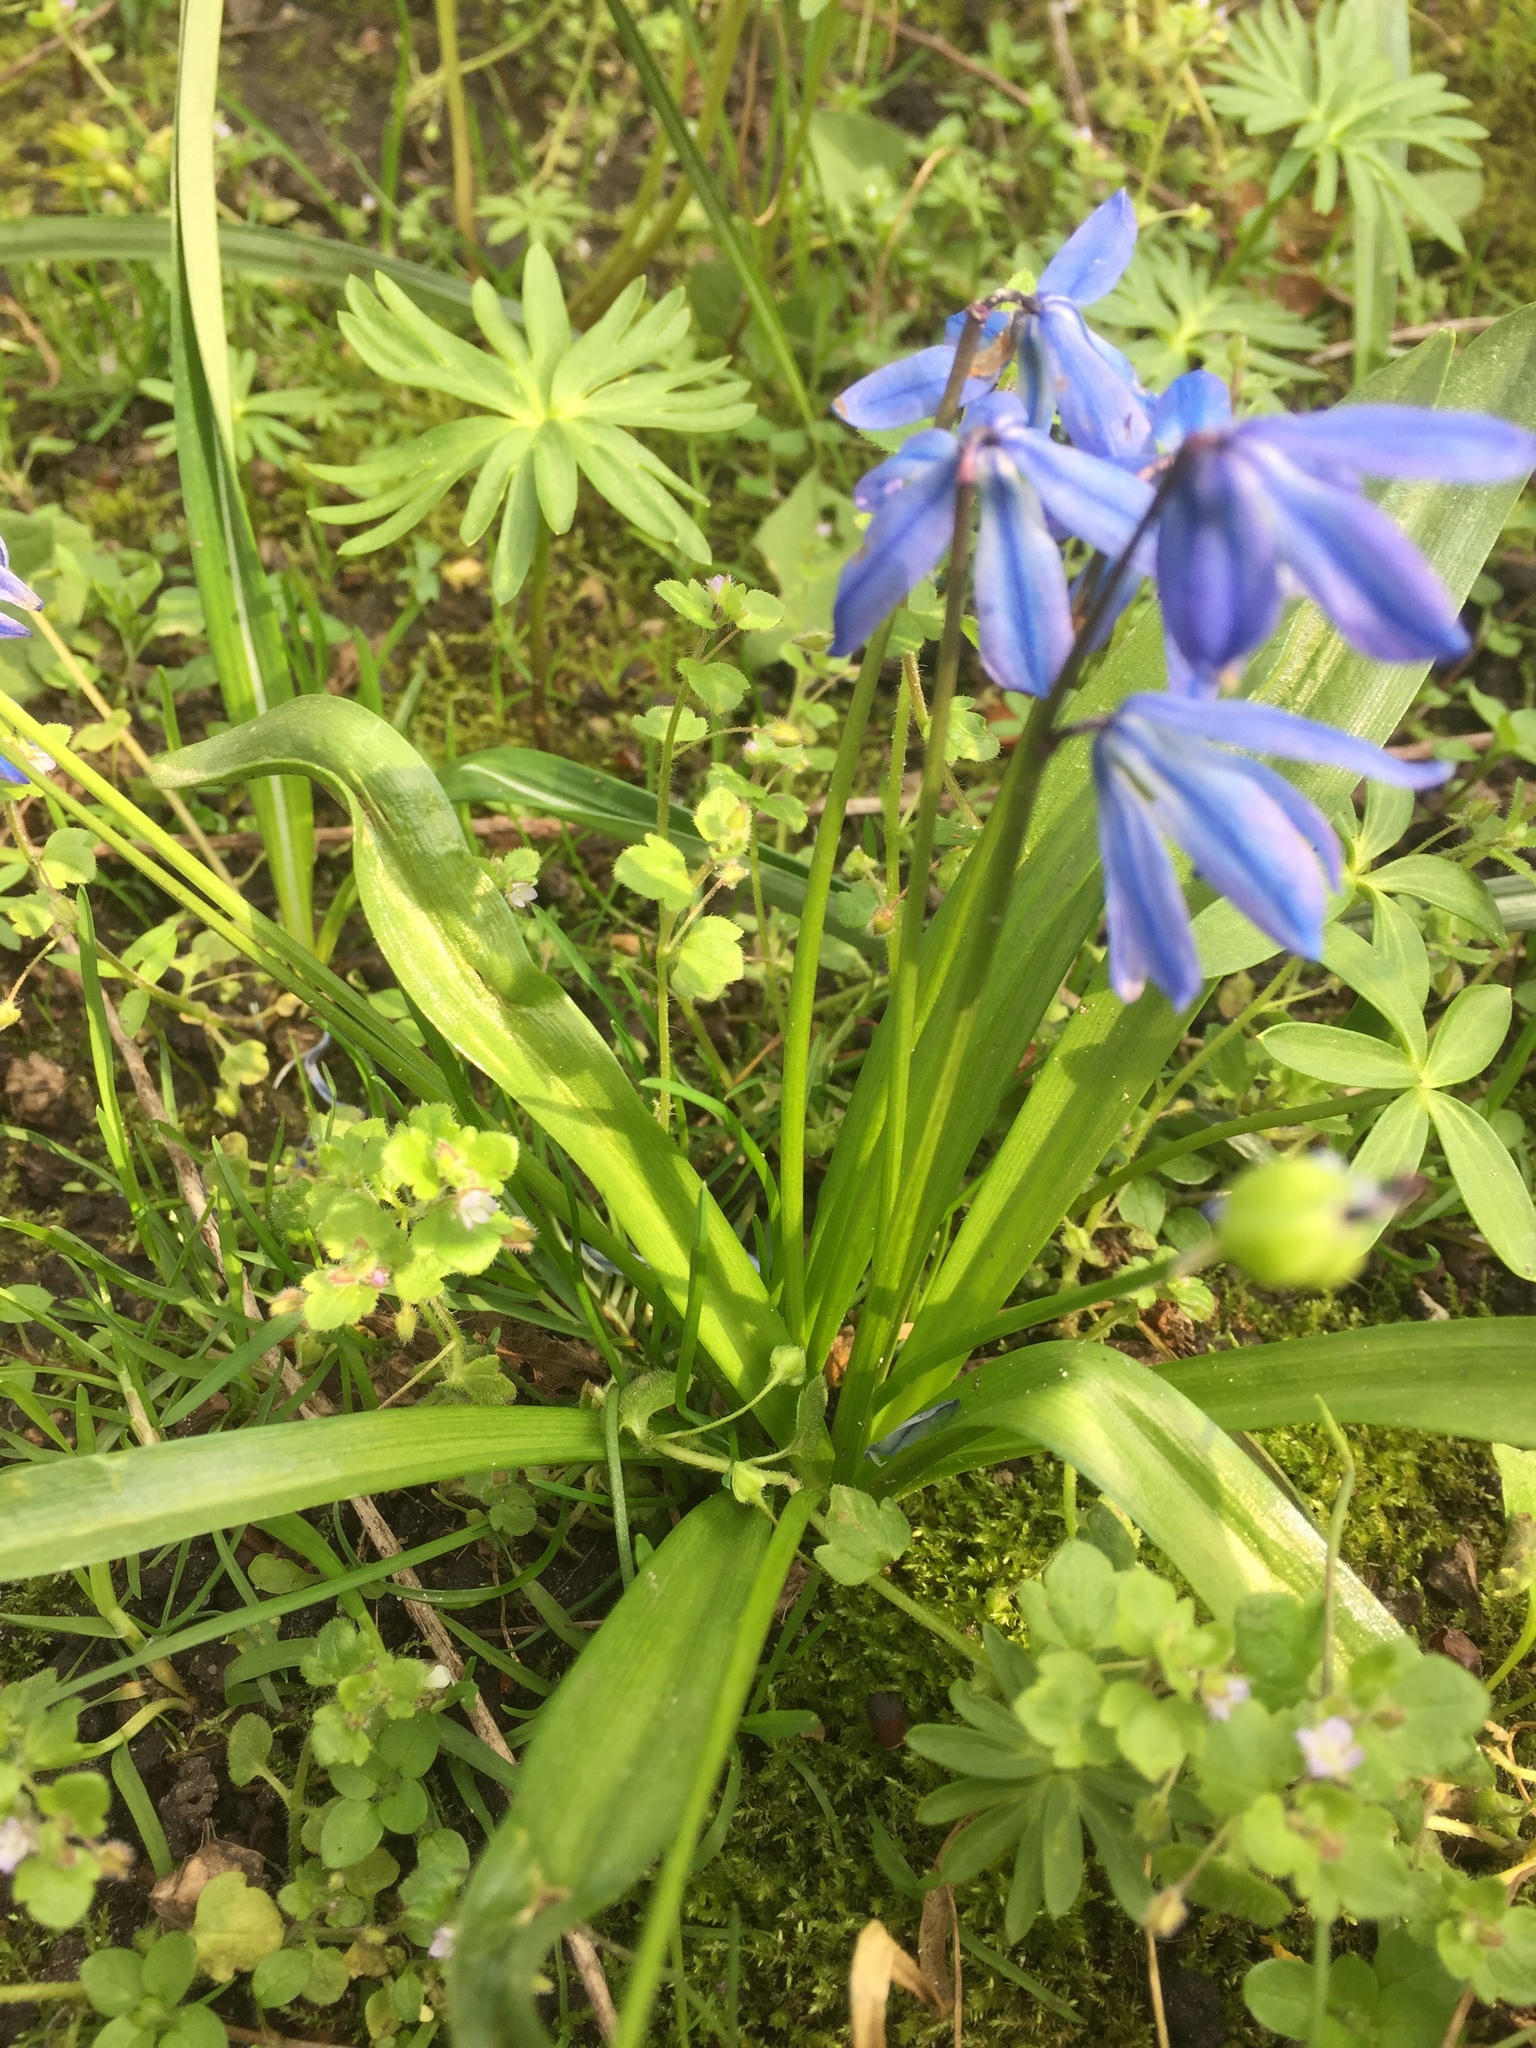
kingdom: Plantae
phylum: Tracheophyta
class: Liliopsida
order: Asparagales
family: Asparagaceae
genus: Scilla
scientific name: Scilla siberica
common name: Siberian squill
